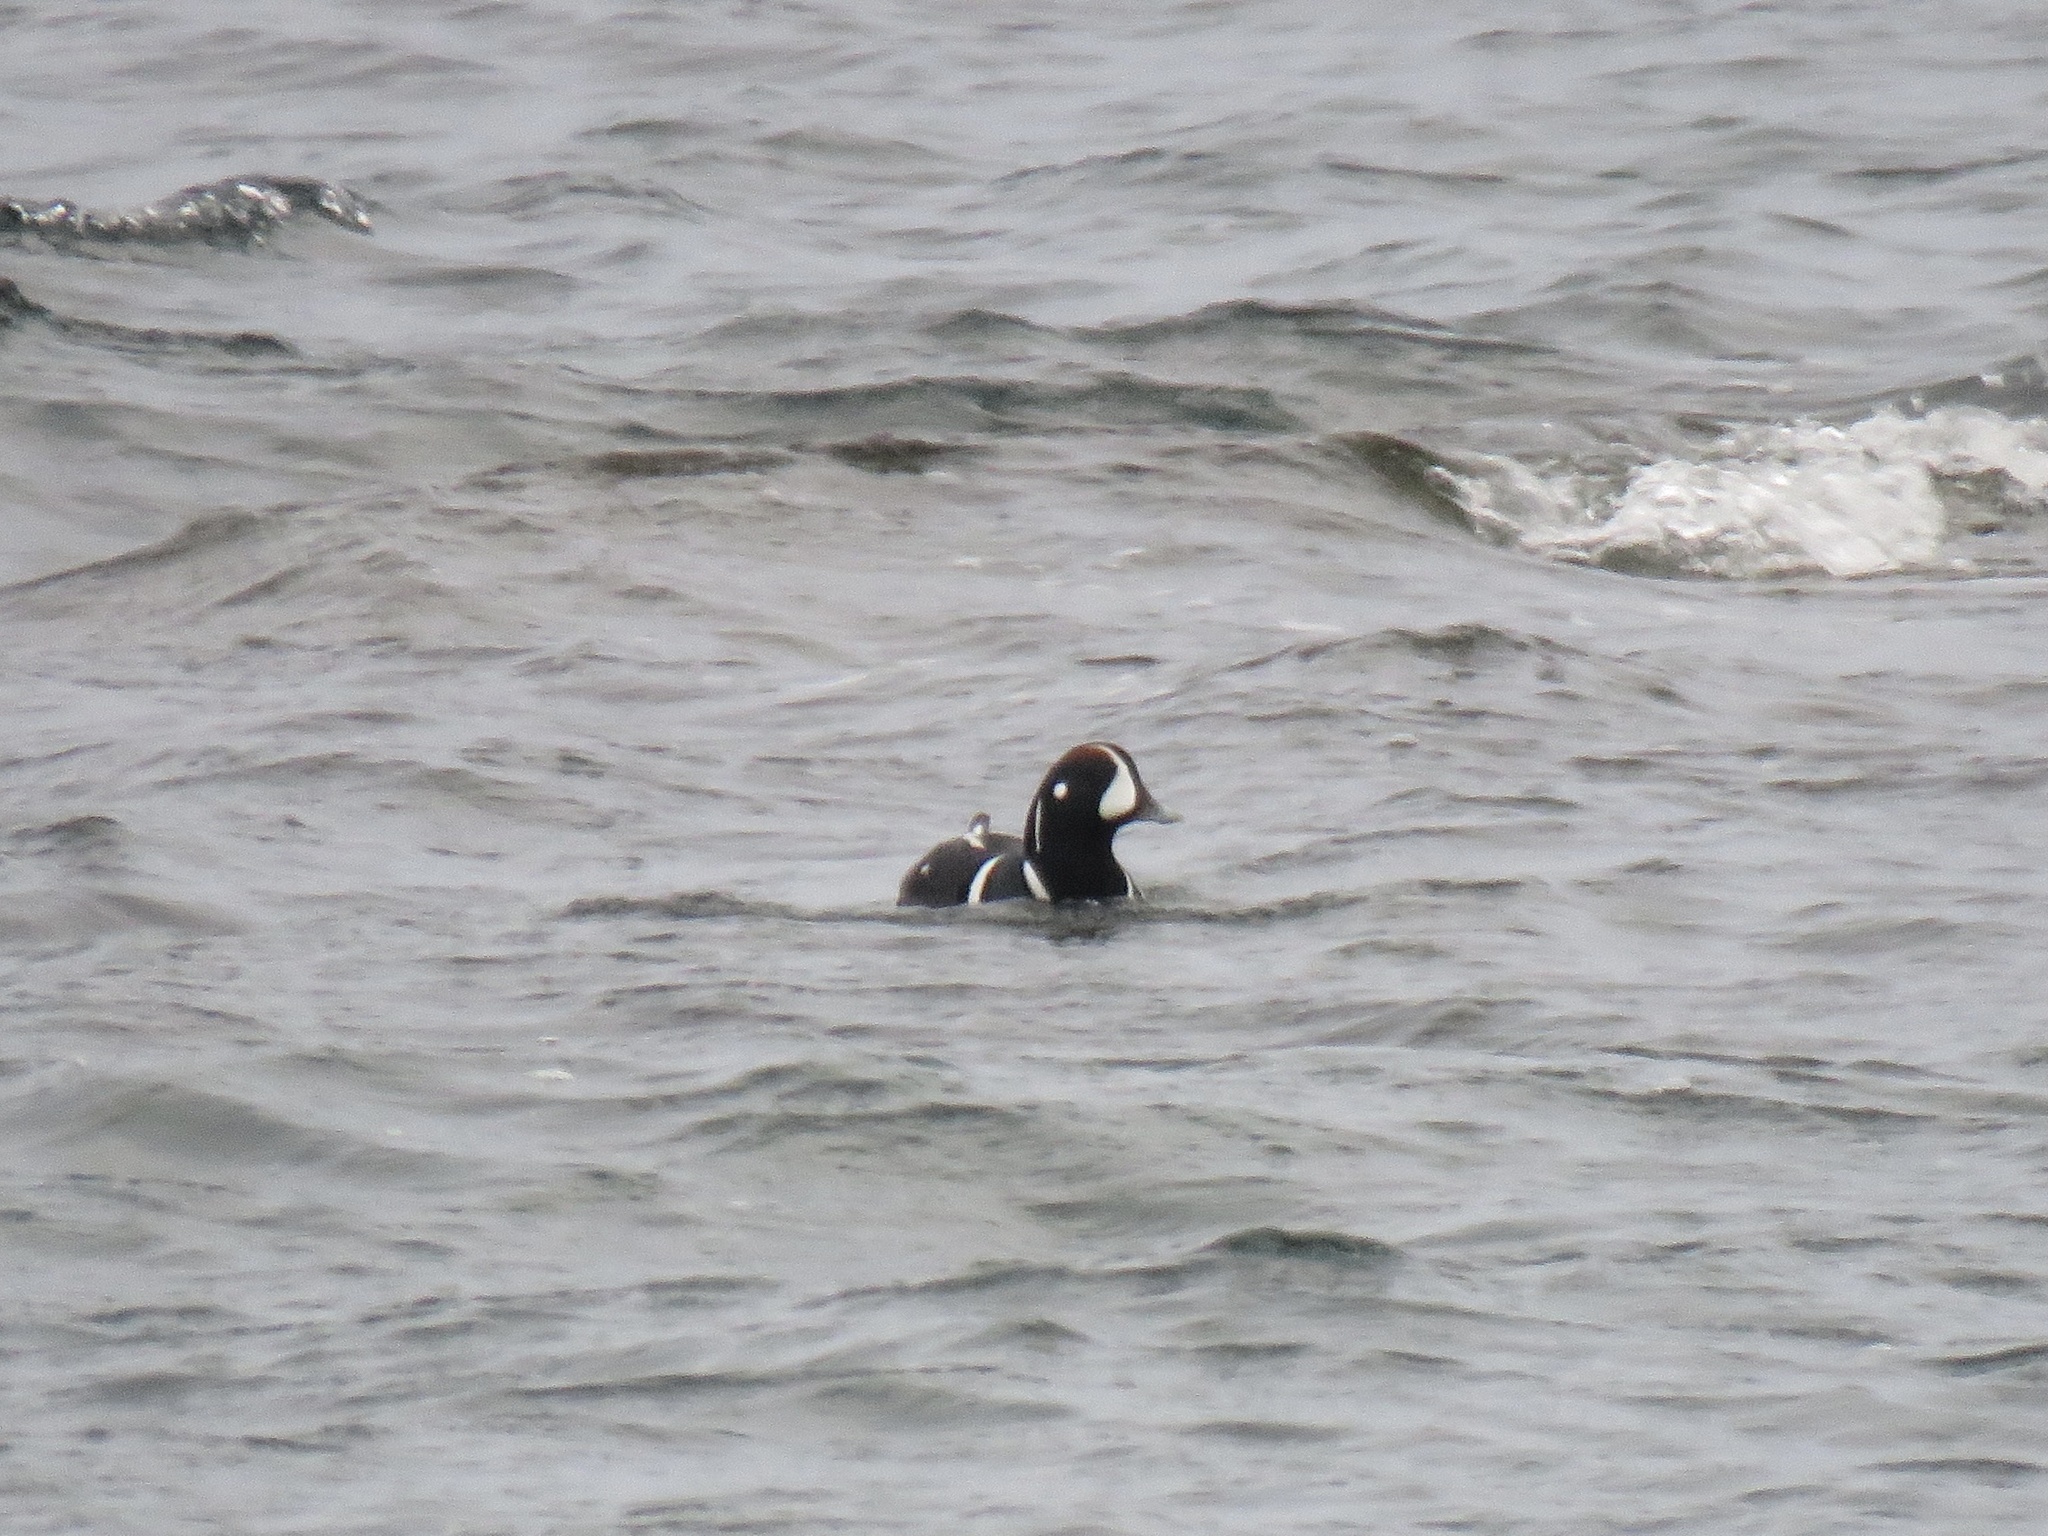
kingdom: Animalia
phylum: Chordata
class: Aves
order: Anseriformes
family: Anatidae
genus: Histrionicus
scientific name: Histrionicus histrionicus
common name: Harlequin duck
